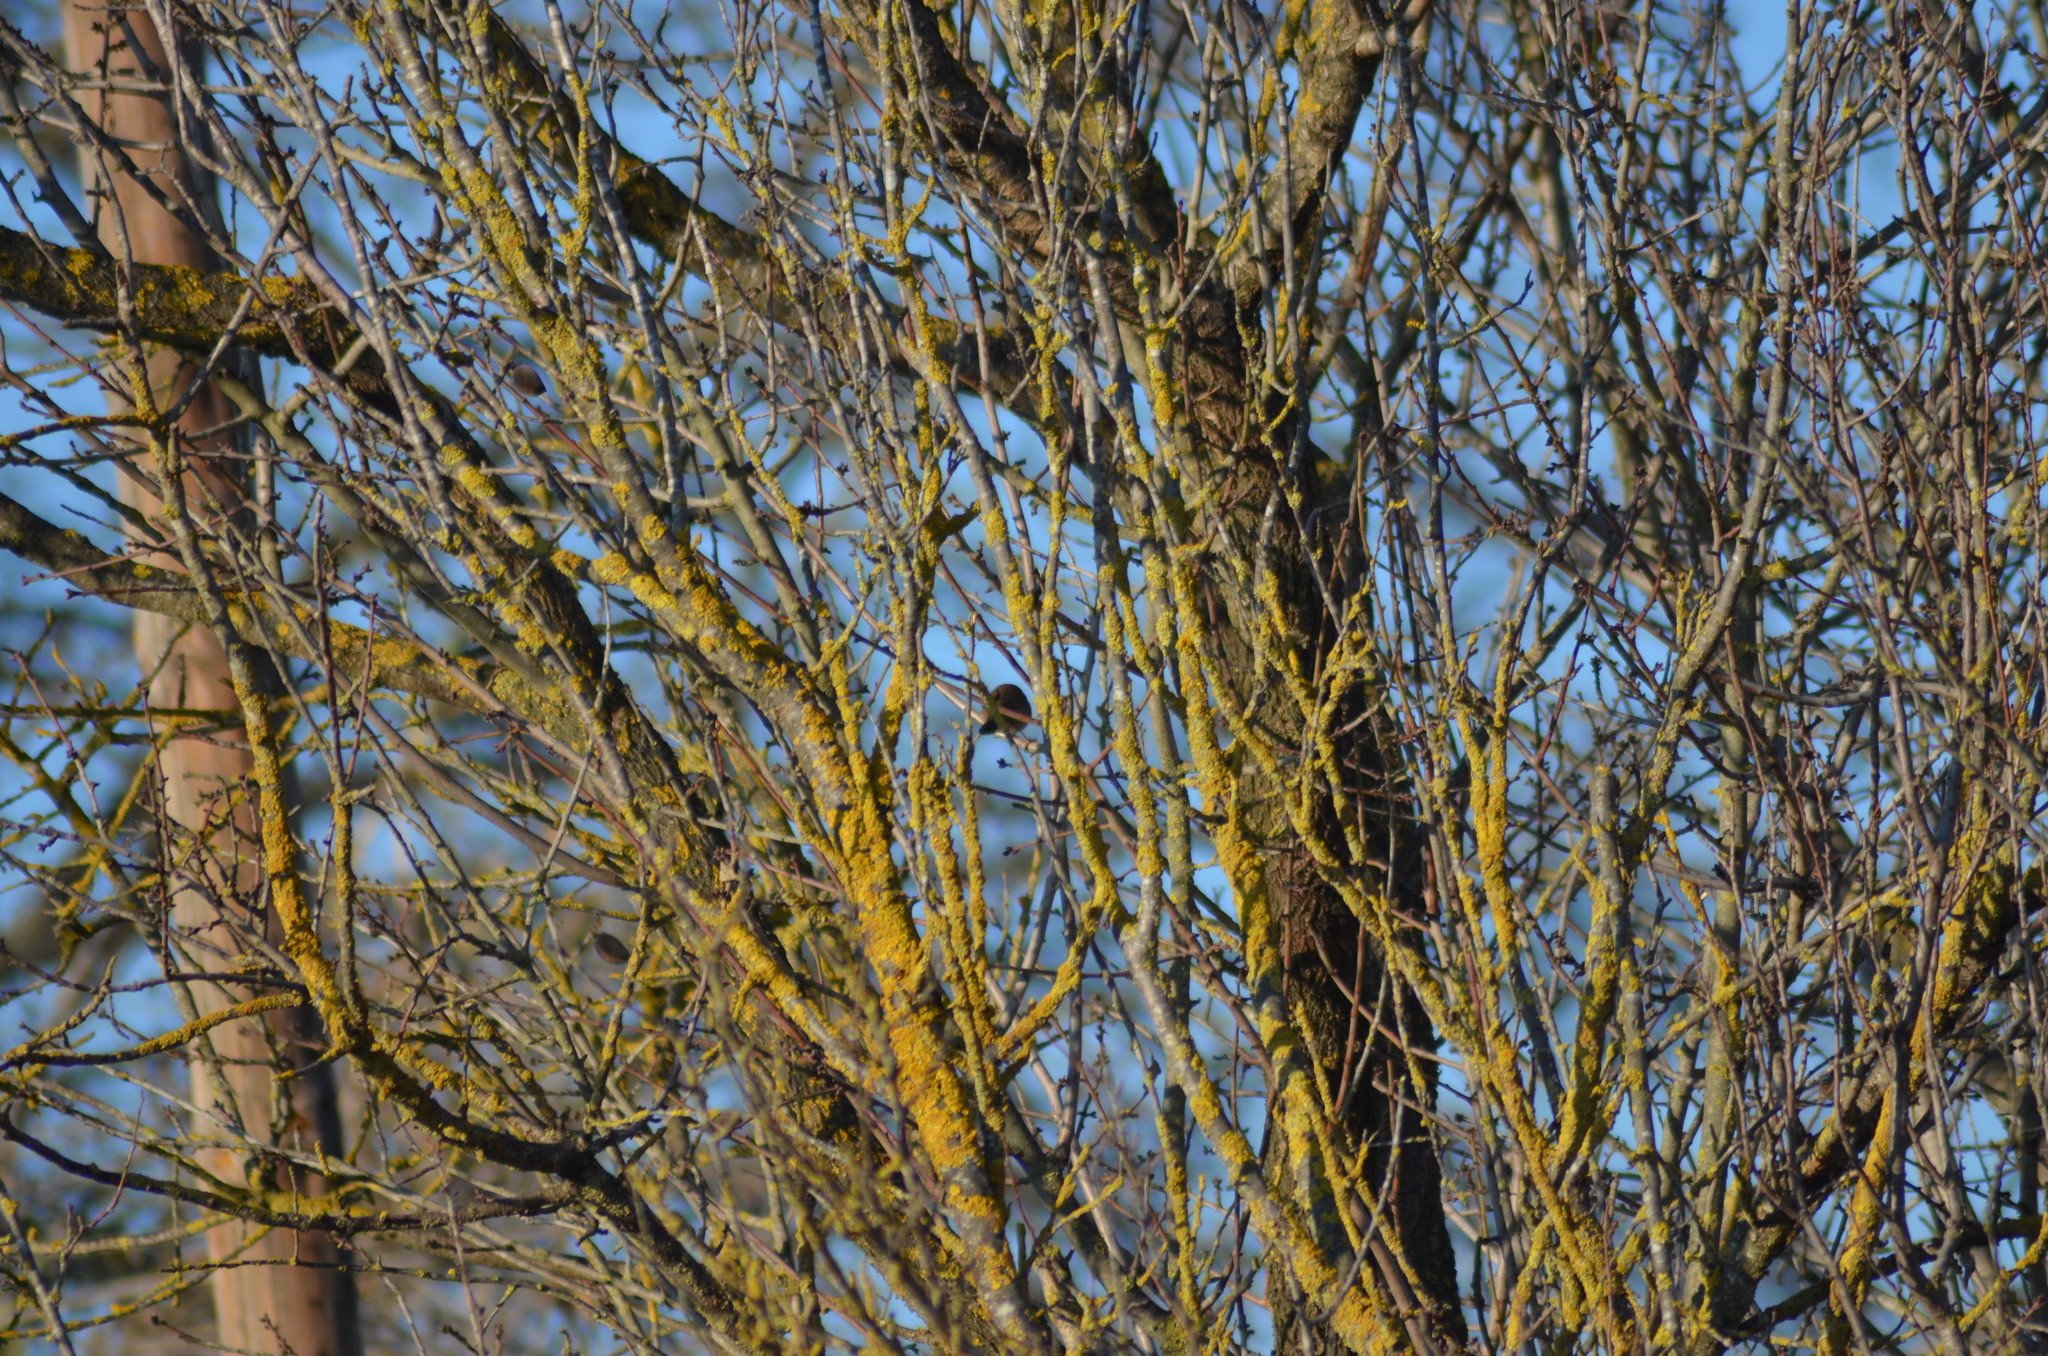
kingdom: Animalia
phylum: Chordata
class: Aves
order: Passeriformes
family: Sylviidae
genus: Sylvia
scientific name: Sylvia atricapilla
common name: Eurasian blackcap
